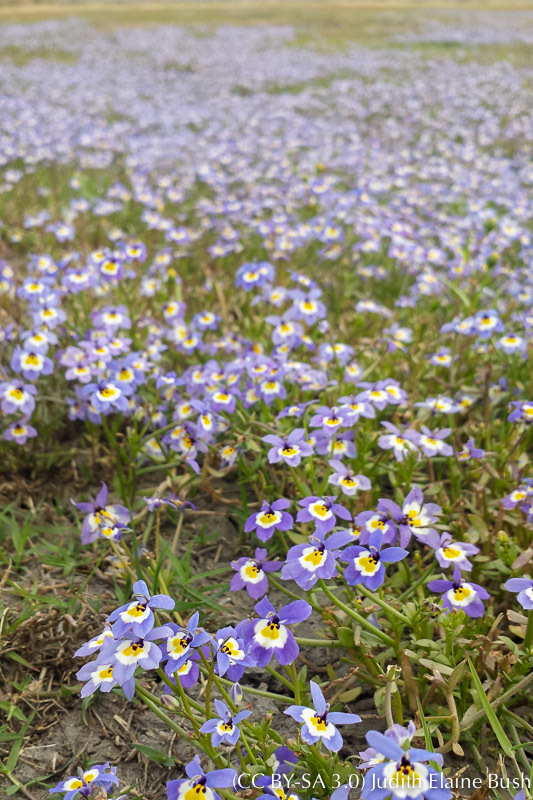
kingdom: Plantae
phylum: Tracheophyta
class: Magnoliopsida
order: Asterales
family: Campanulaceae
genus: Downingia
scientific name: Downingia pulchella
